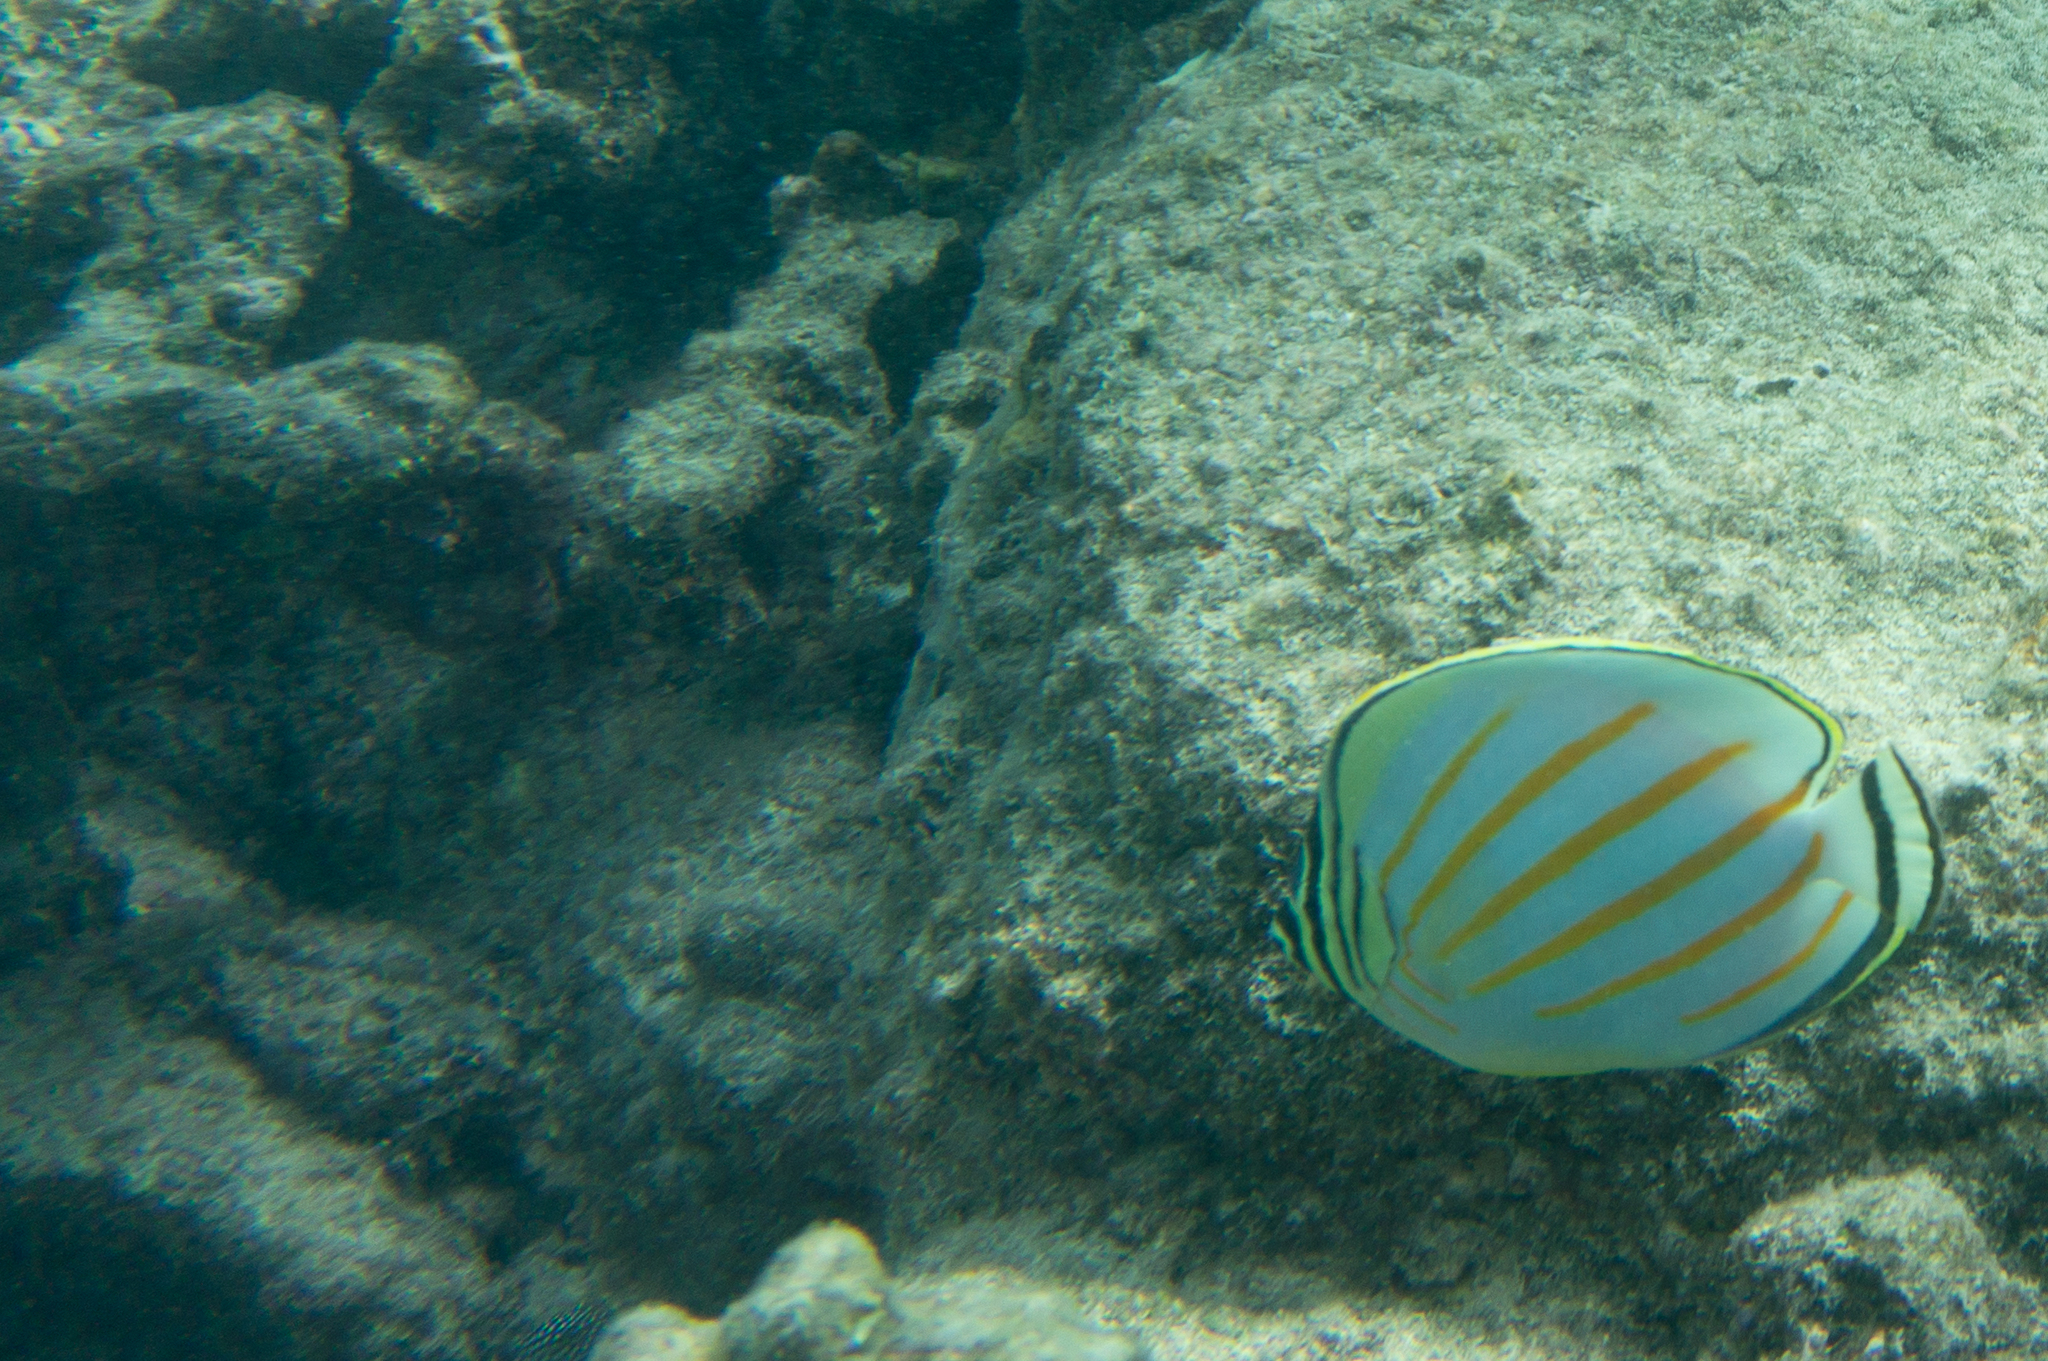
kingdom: Animalia
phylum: Chordata
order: Perciformes
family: Chaetodontidae
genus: Chaetodon
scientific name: Chaetodon ornatissimus
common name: Ornate butterflyfish
